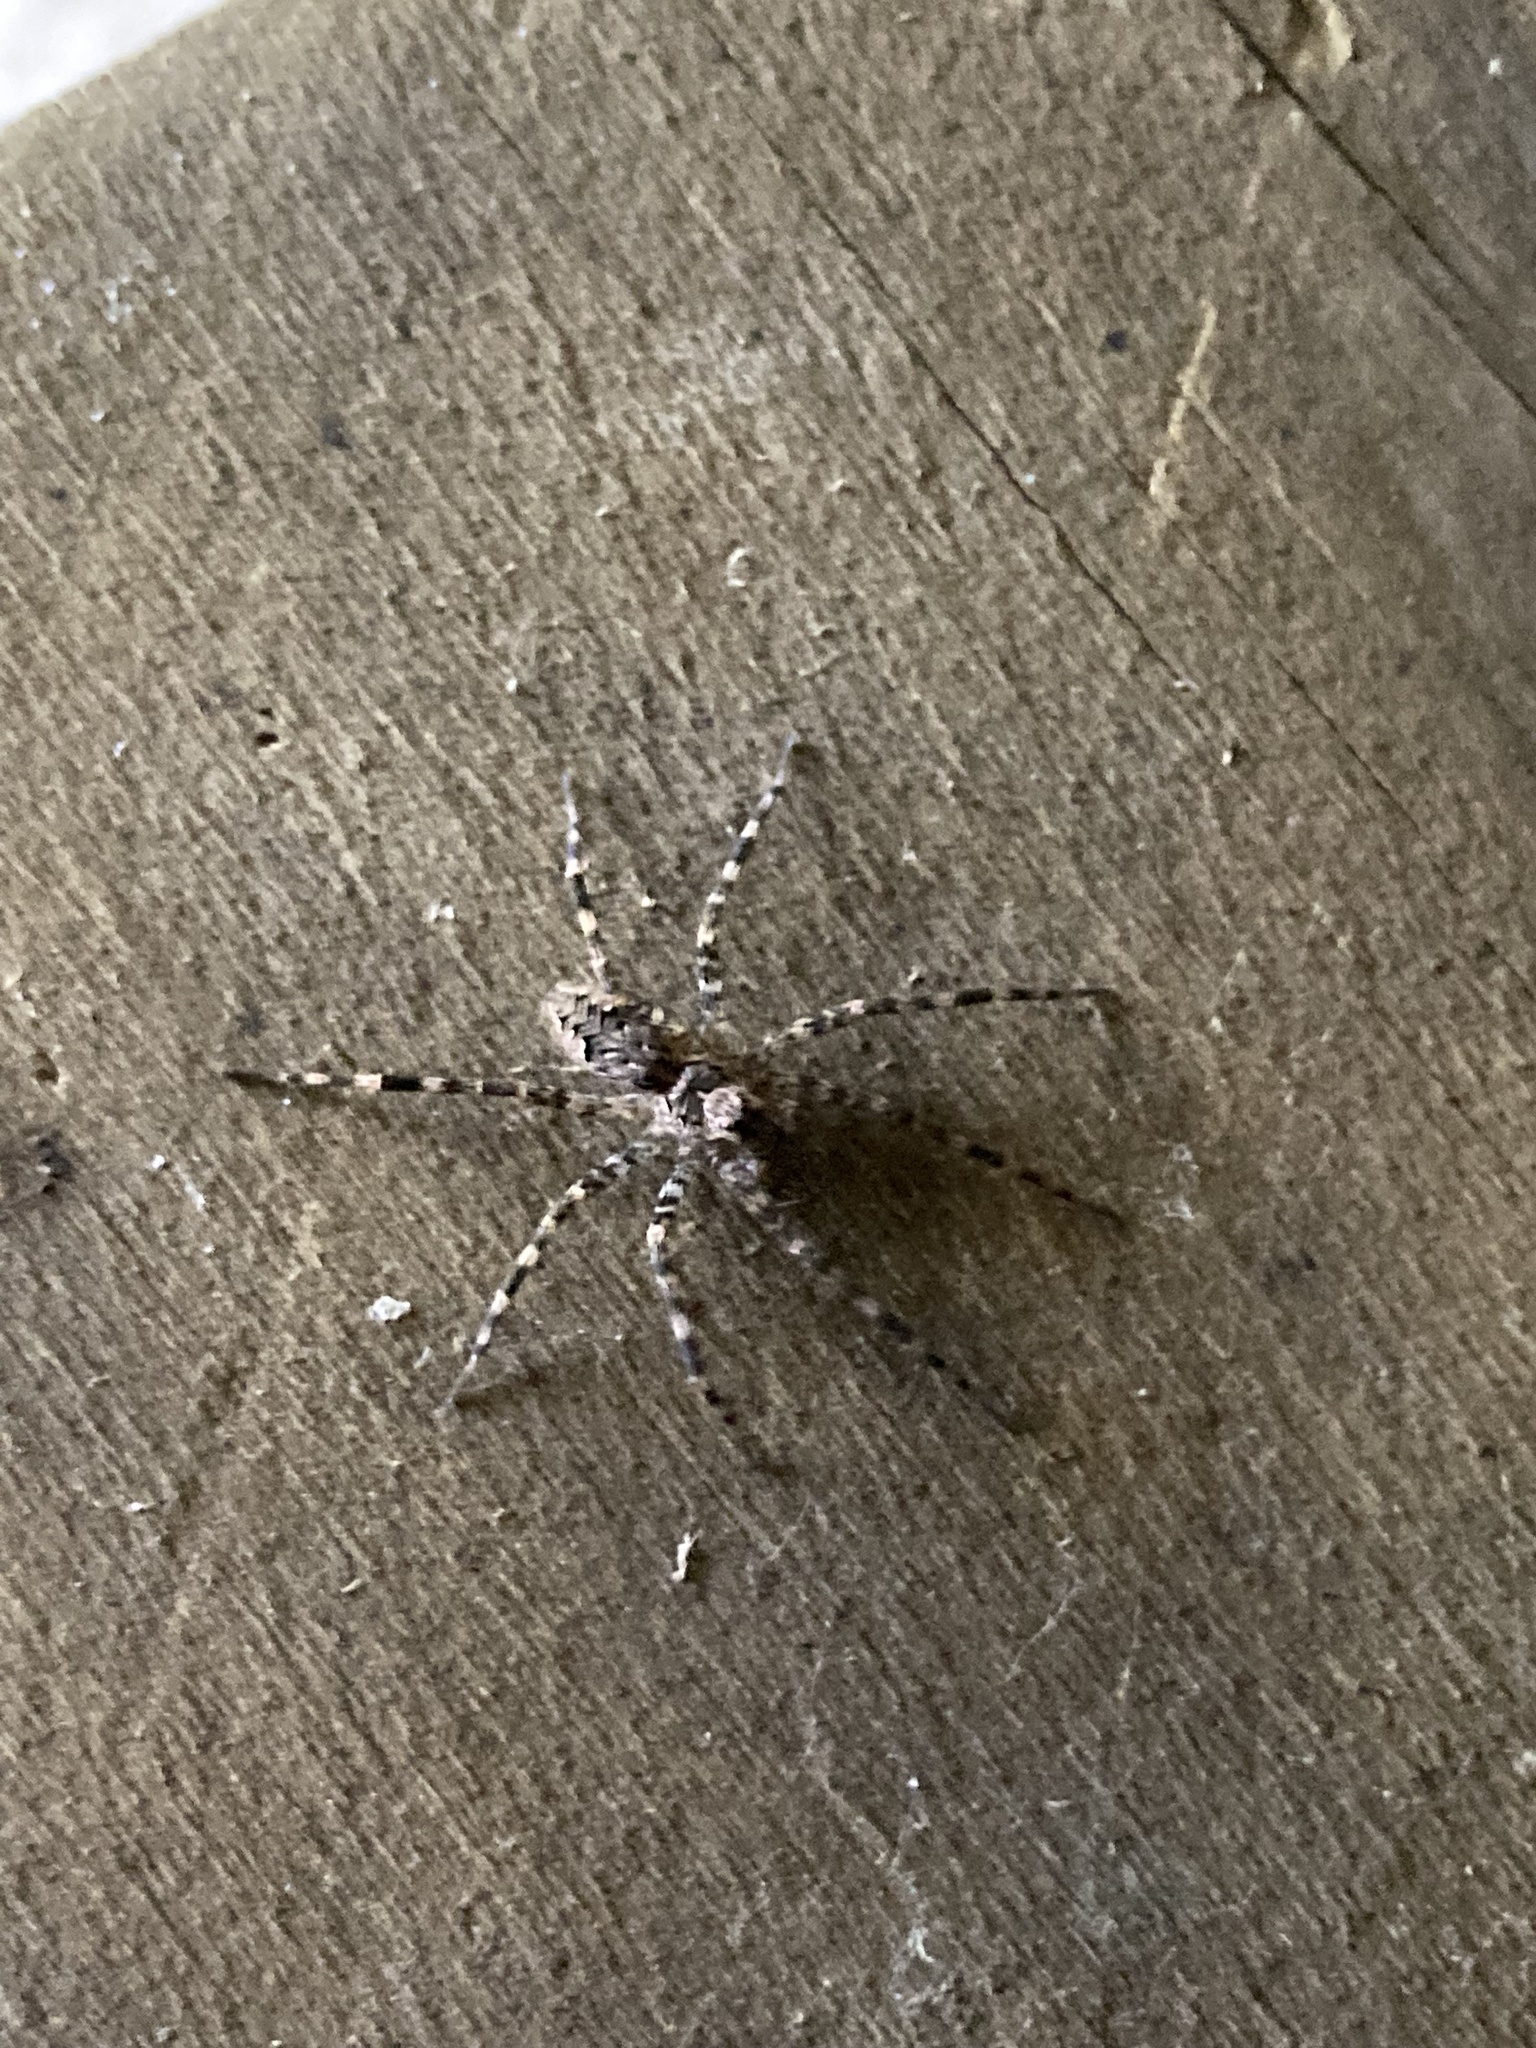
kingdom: Animalia
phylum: Arthropoda
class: Arachnida
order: Araneae
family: Pisauridae
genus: Dolomedes
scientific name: Dolomedes tenebrosus
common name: Dark fishing spider
